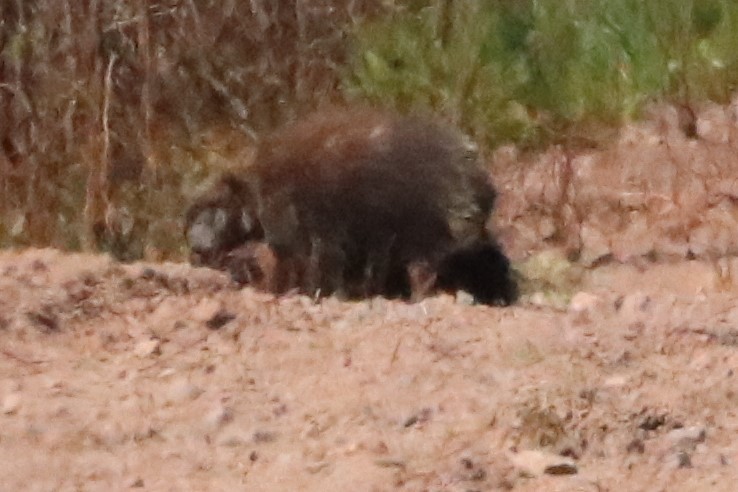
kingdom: Animalia
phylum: Chordata
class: Mammalia
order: Rodentia
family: Erethizontidae
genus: Erethizon
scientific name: Erethizon dorsatus
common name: North american porcupine
